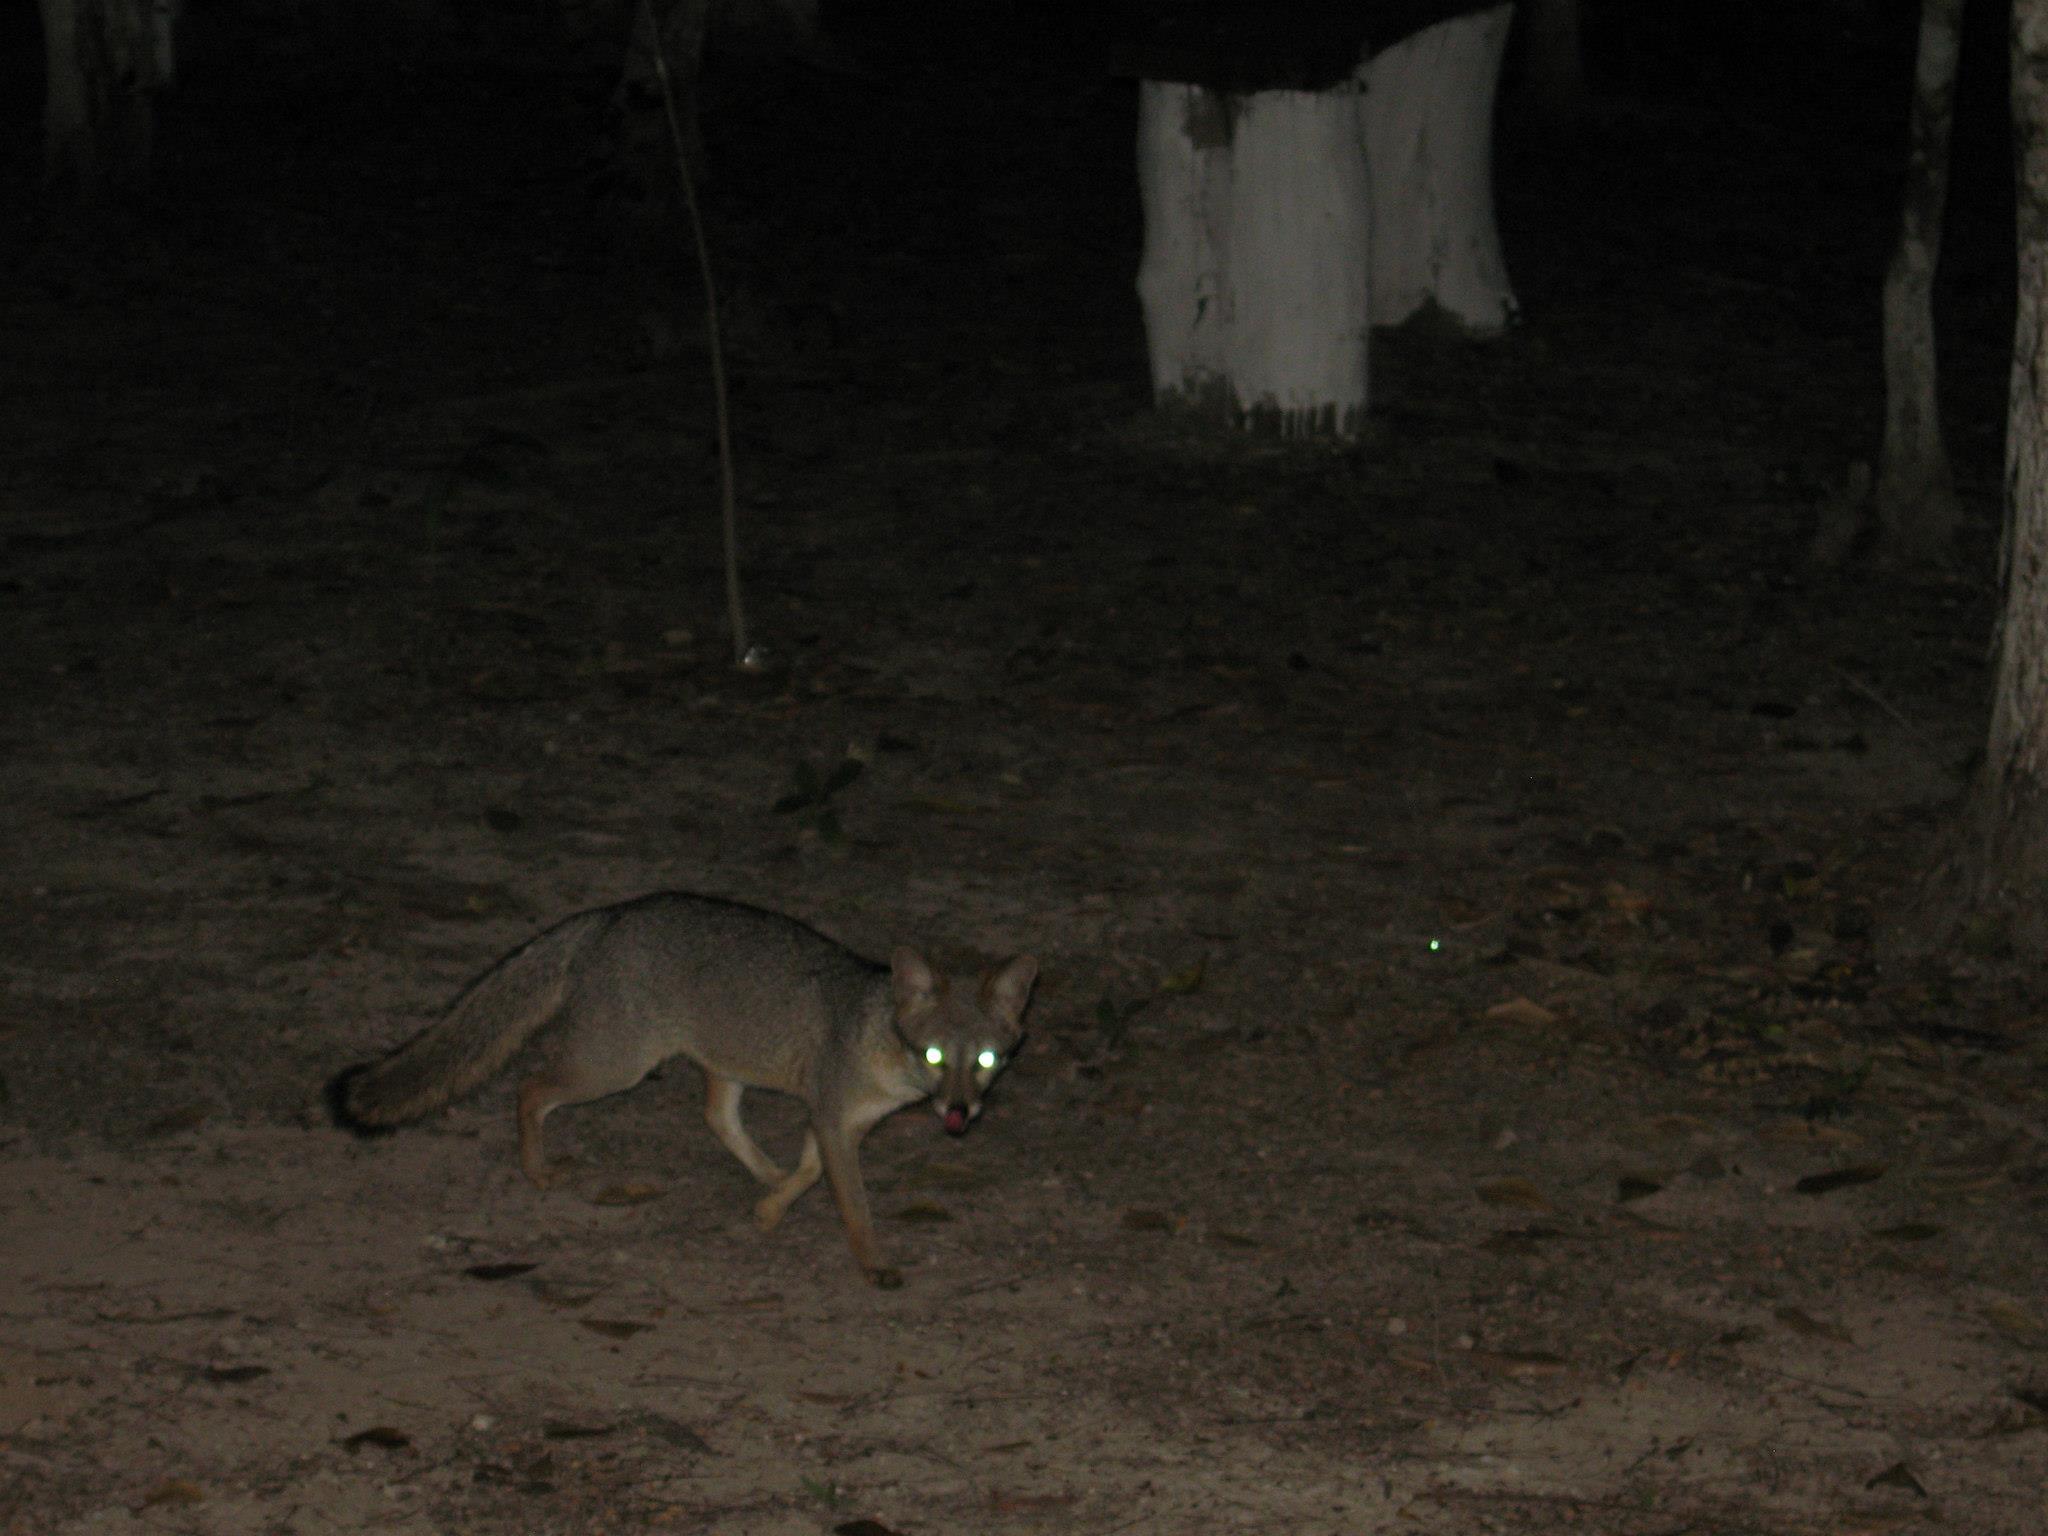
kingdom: Animalia
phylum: Chordata
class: Mammalia
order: Carnivora
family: Canidae
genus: Urocyon
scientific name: Urocyon cinereoargenteus
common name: Gray fox
